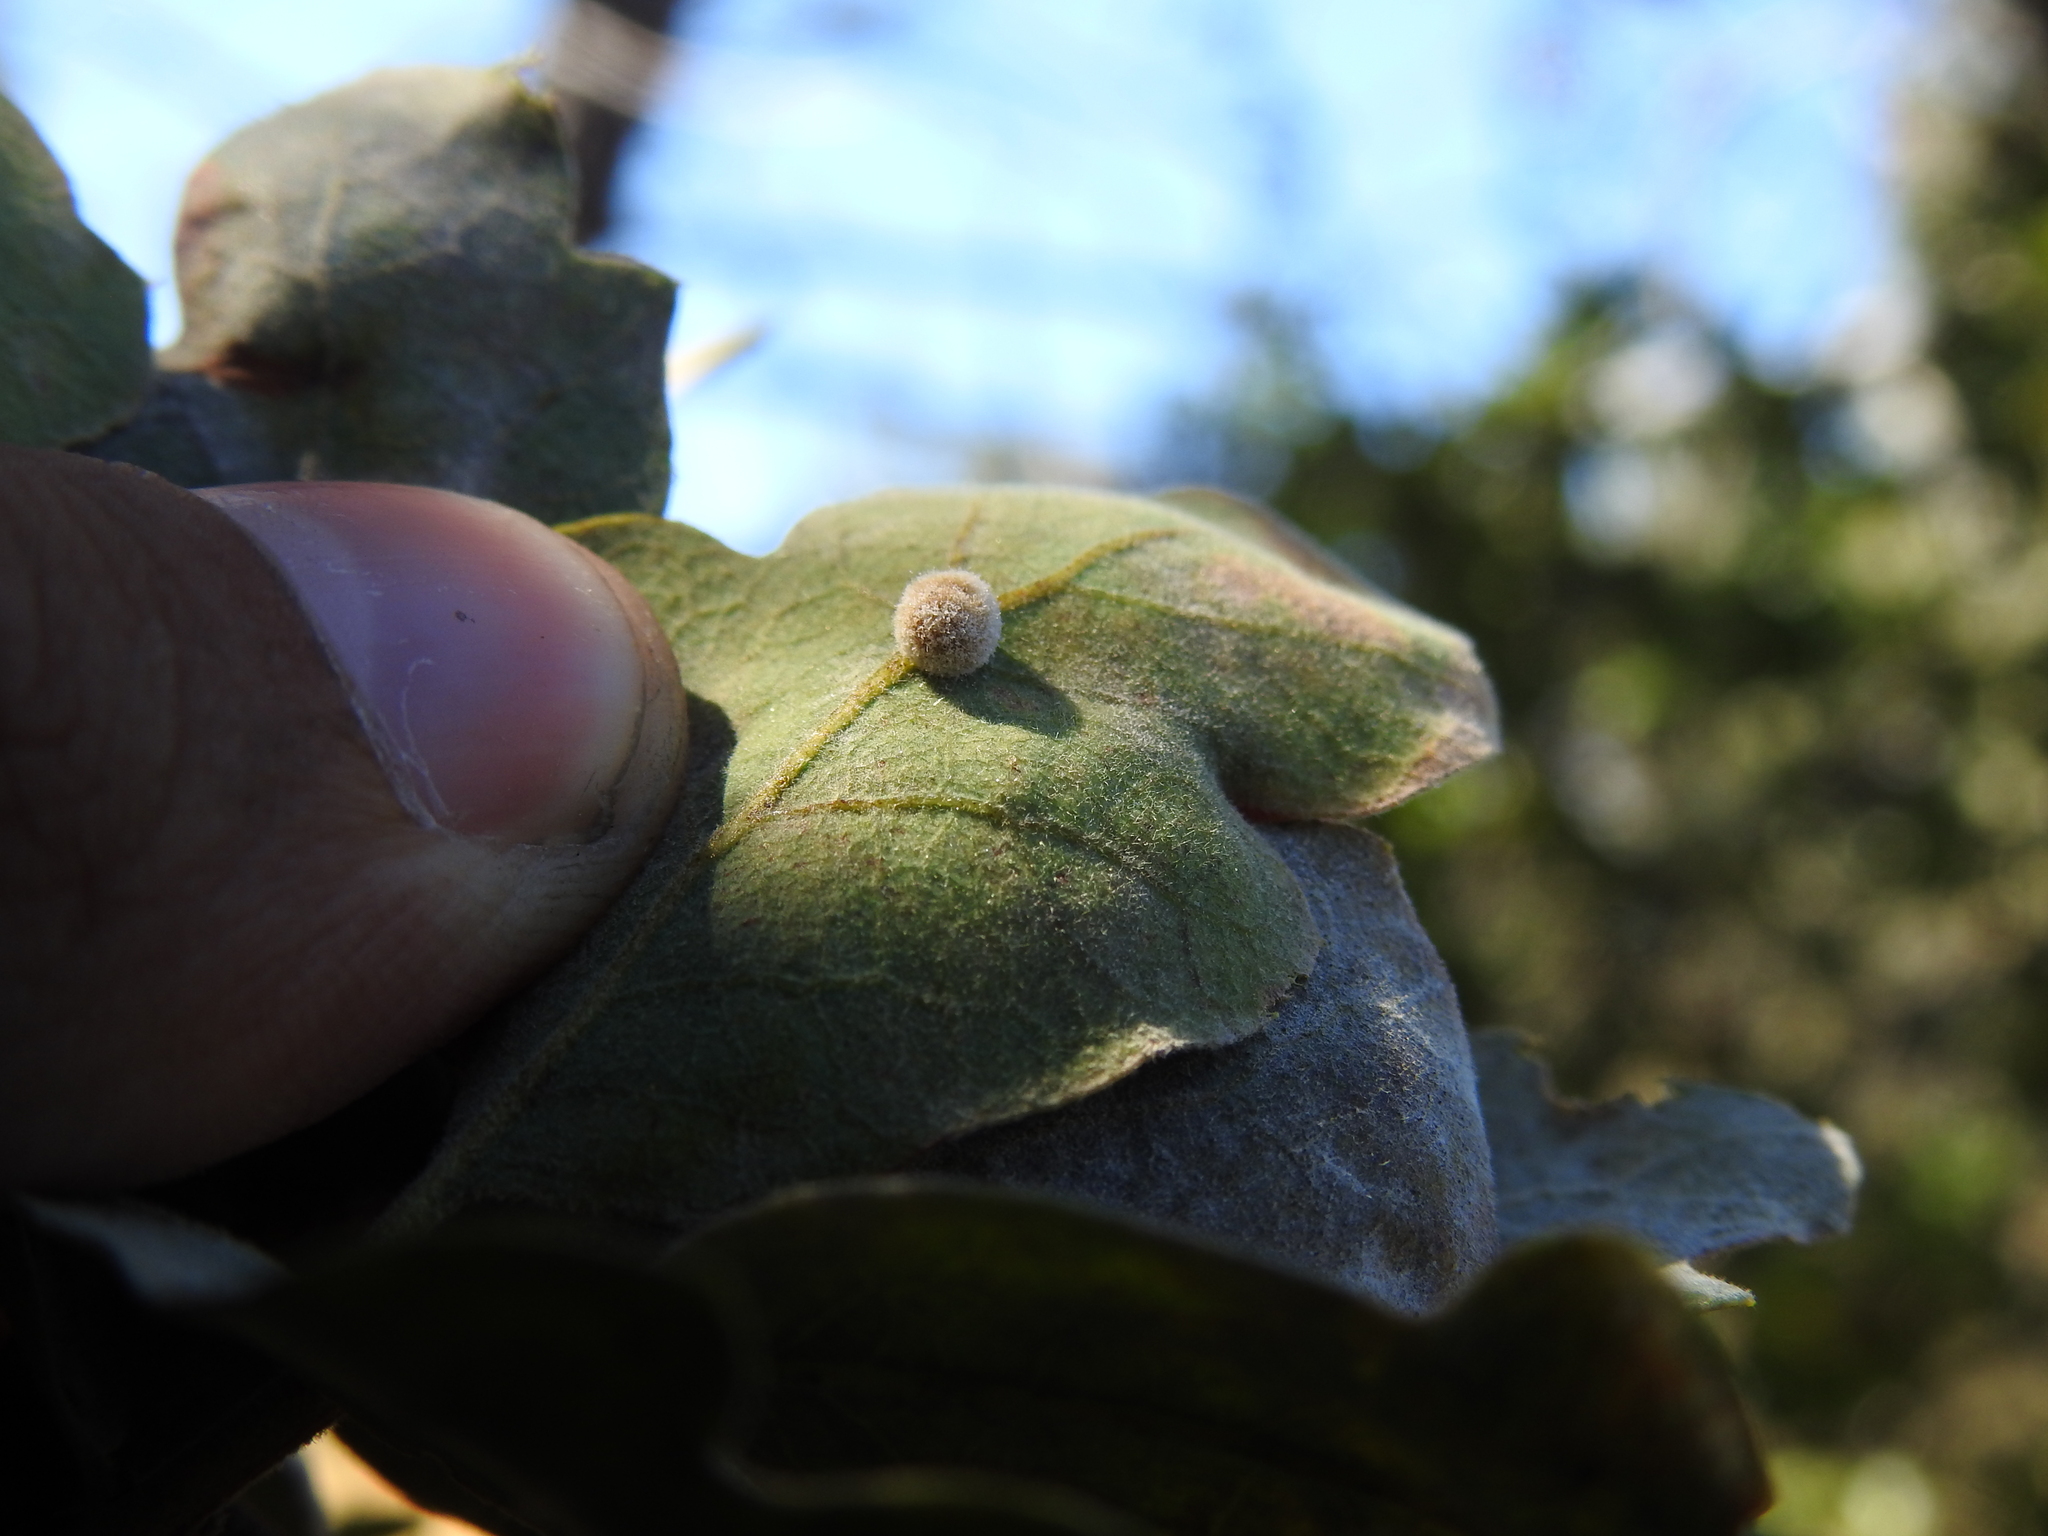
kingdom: Animalia
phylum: Arthropoda
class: Insecta
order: Hymenoptera
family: Cynipidae
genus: Cynips
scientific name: Cynips
